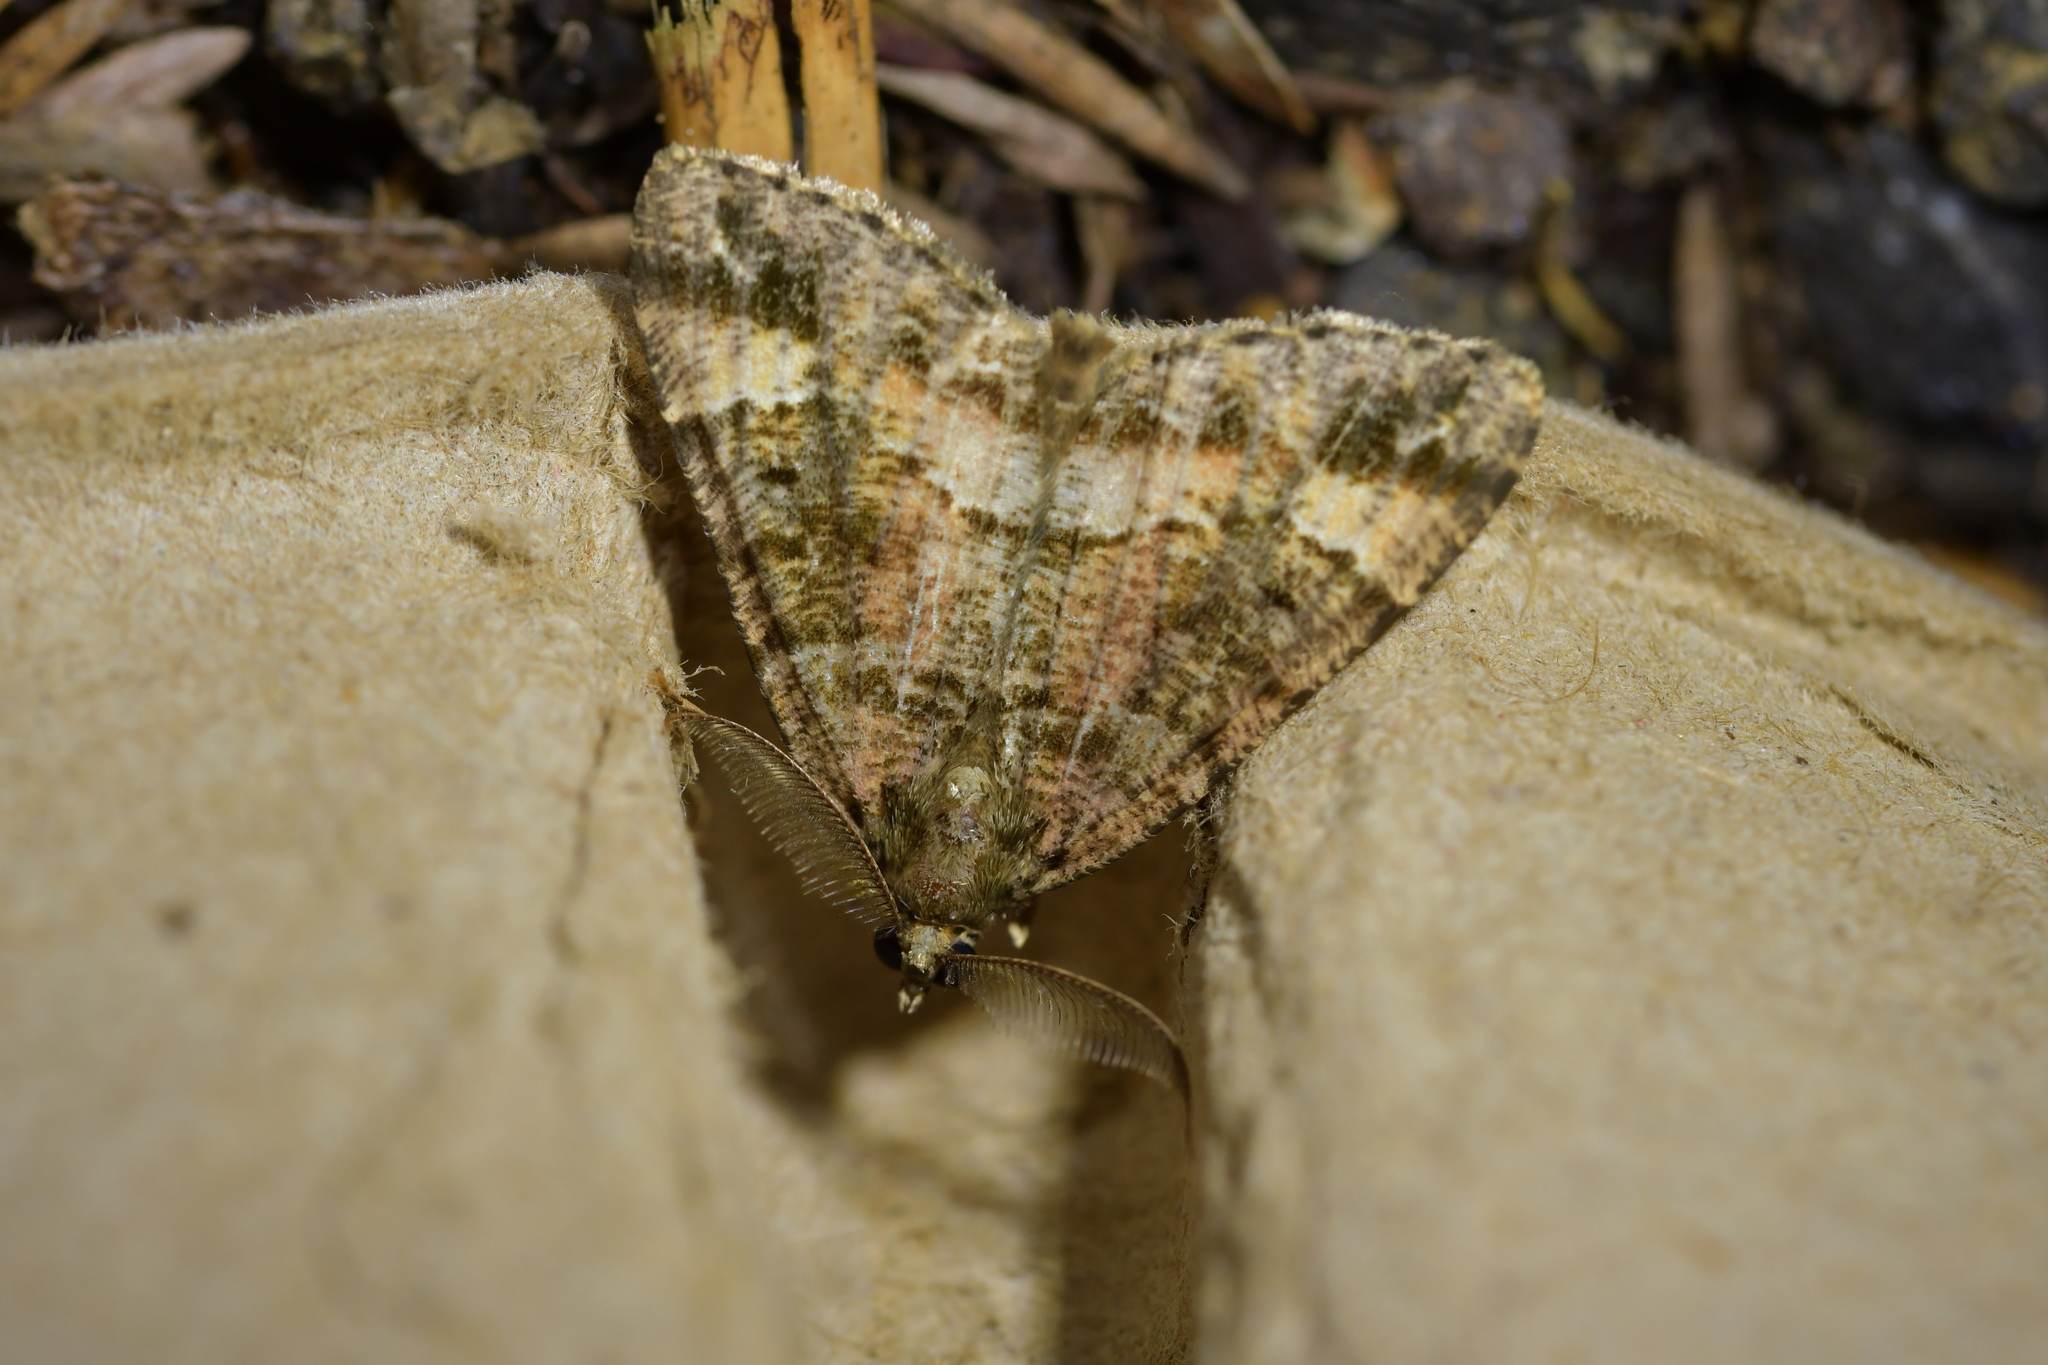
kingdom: Animalia
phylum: Arthropoda
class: Insecta
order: Lepidoptera
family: Geometridae
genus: Pseudocoremia
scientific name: Pseudocoremia productata
